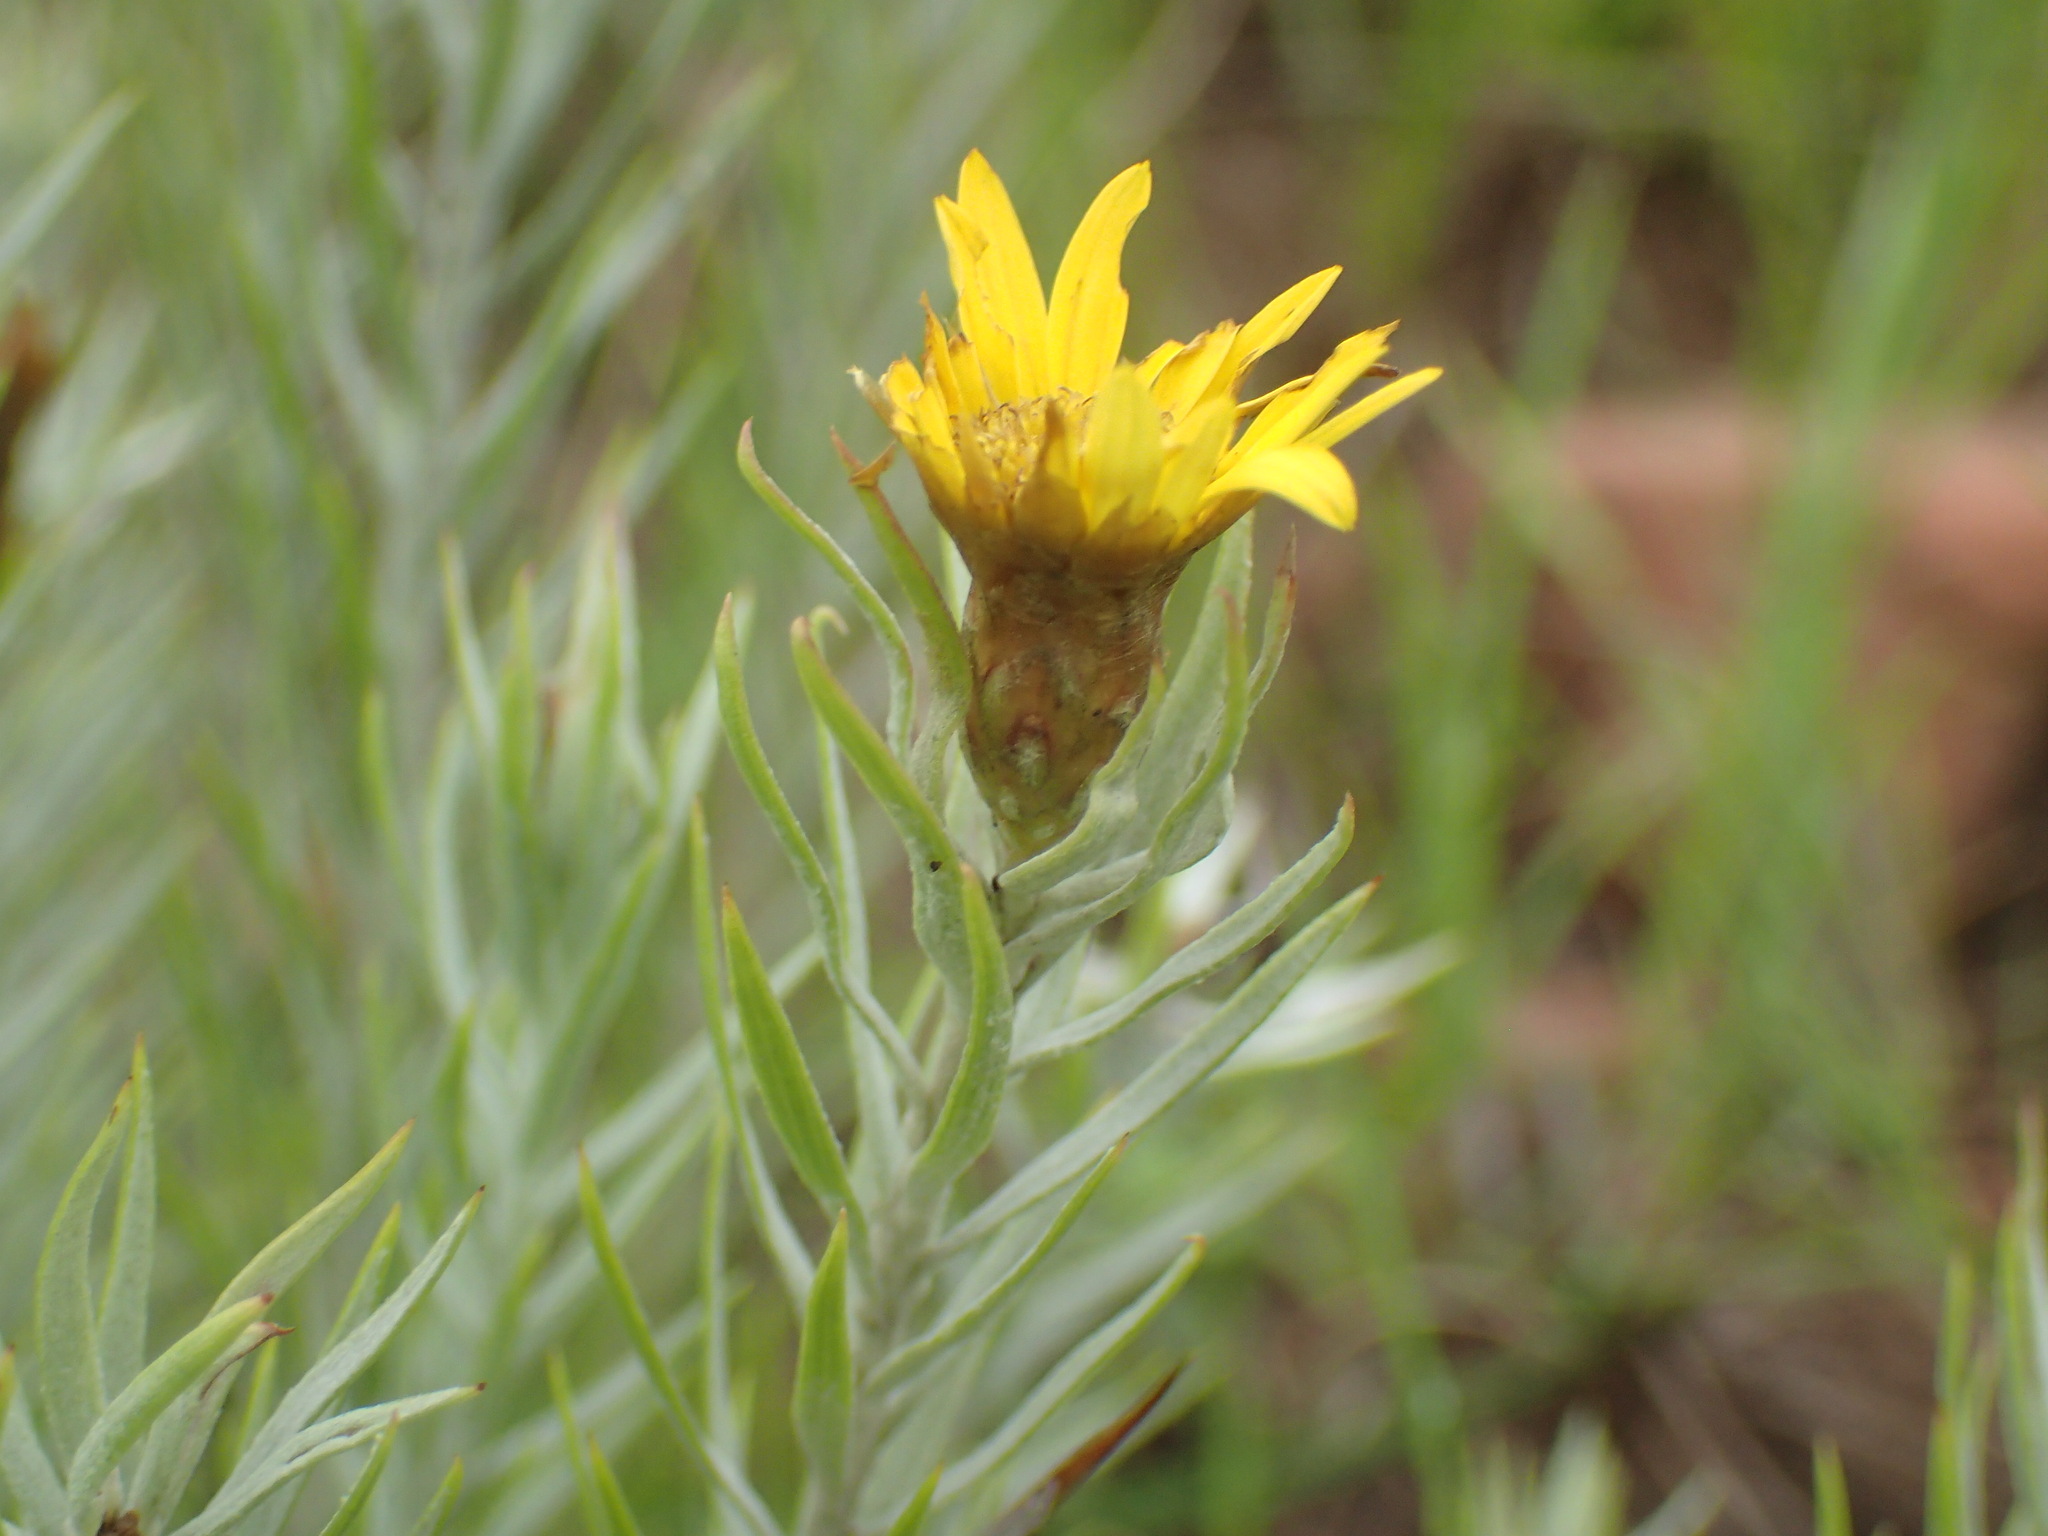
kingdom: Plantae
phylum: Tracheophyta
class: Magnoliopsida
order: Asterales
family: Asteraceae
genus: Oedera
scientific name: Oedera pungens
